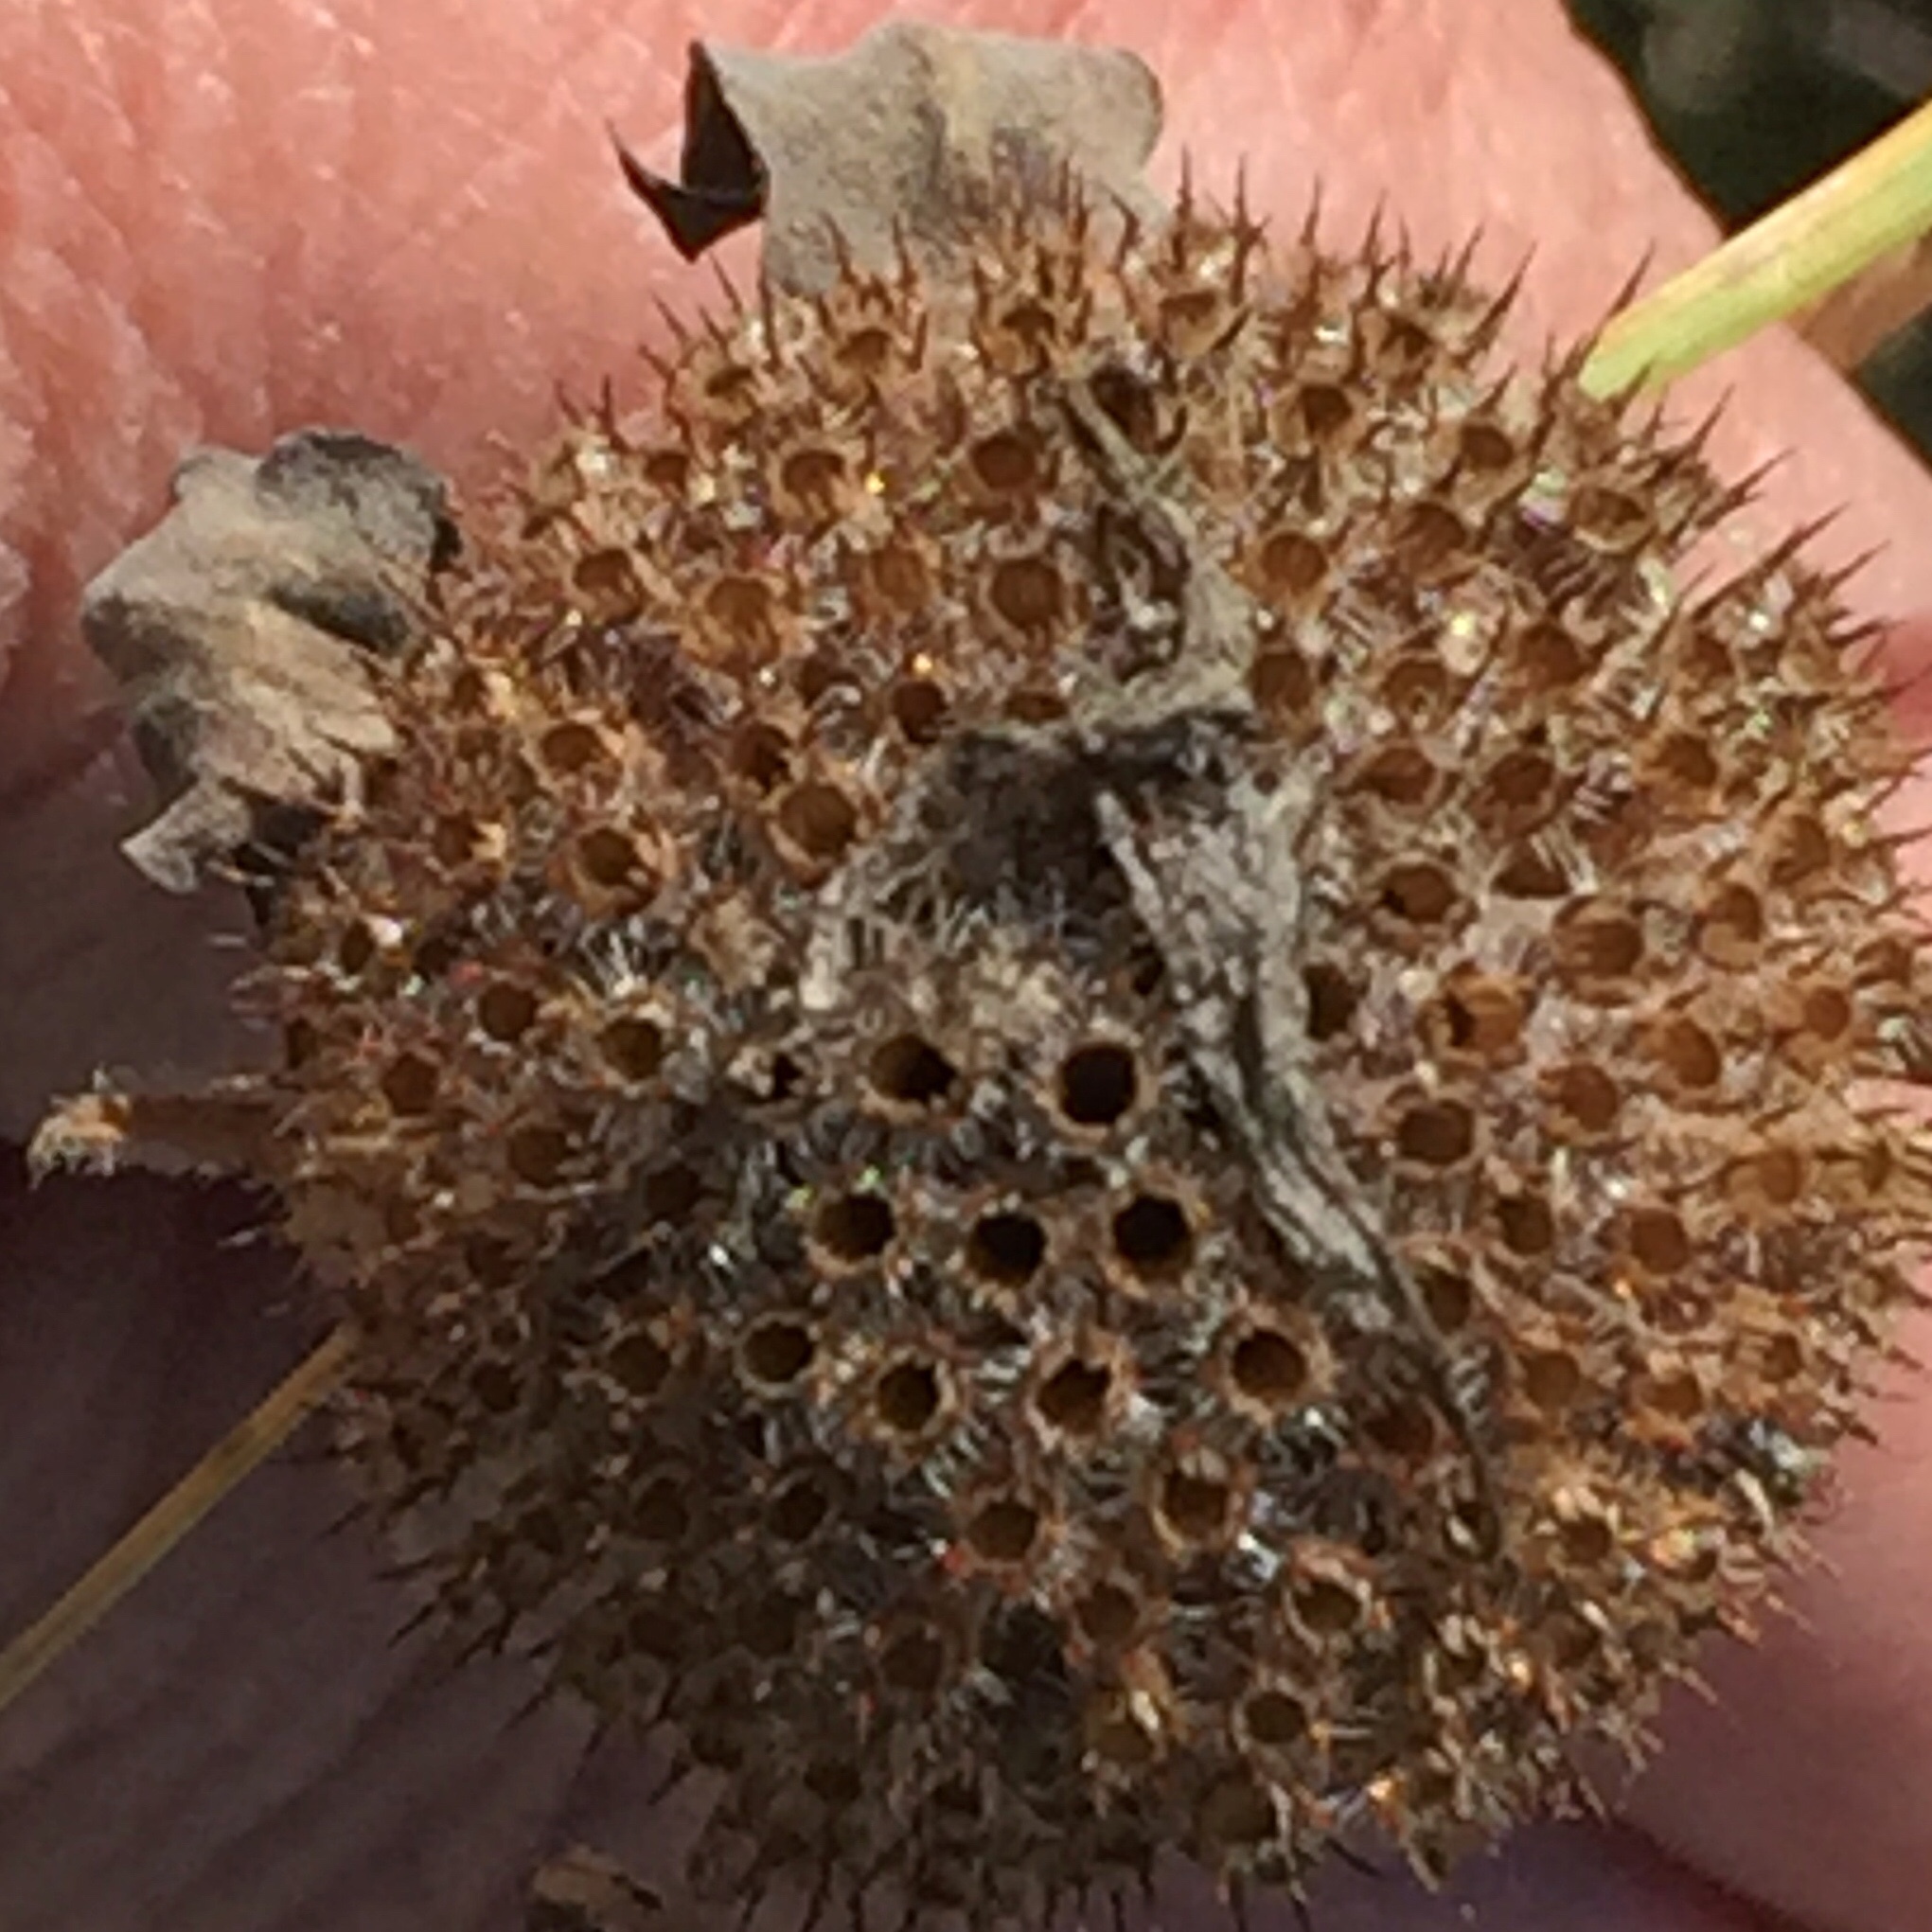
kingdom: Plantae
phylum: Tracheophyta
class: Magnoliopsida
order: Lamiales
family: Lamiaceae
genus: Monarda
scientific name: Monarda fistulosa
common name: Purple beebalm
